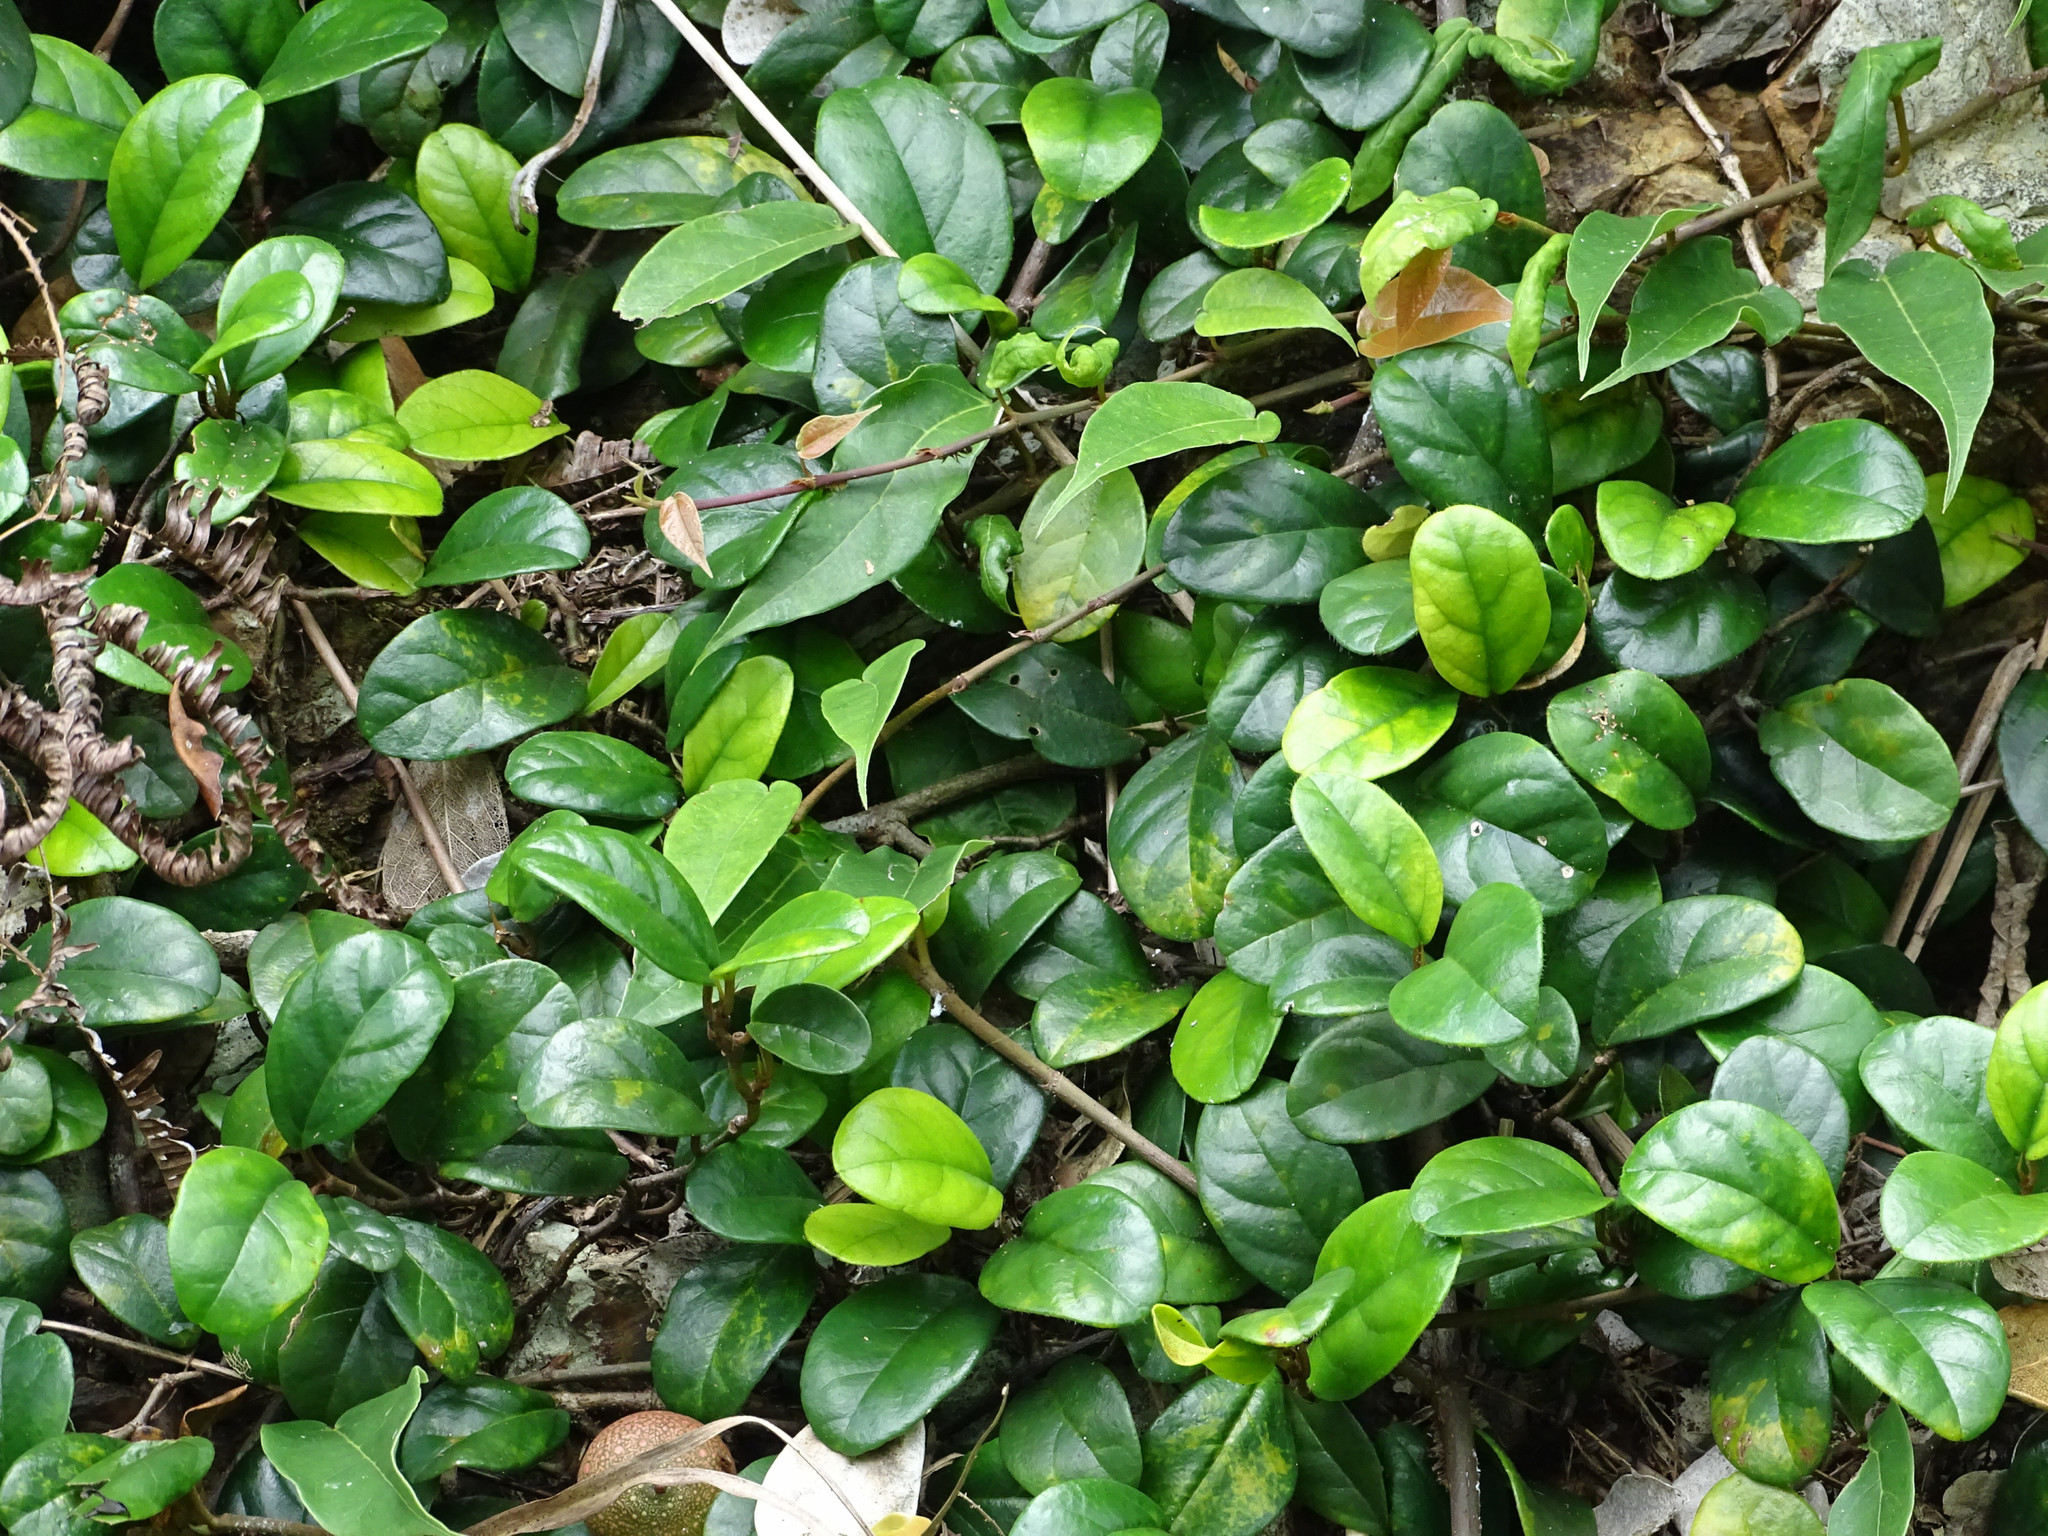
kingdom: Plantae
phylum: Tracheophyta
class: Magnoliopsida
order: Rosales
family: Moraceae
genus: Ficus
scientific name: Ficus punctata
